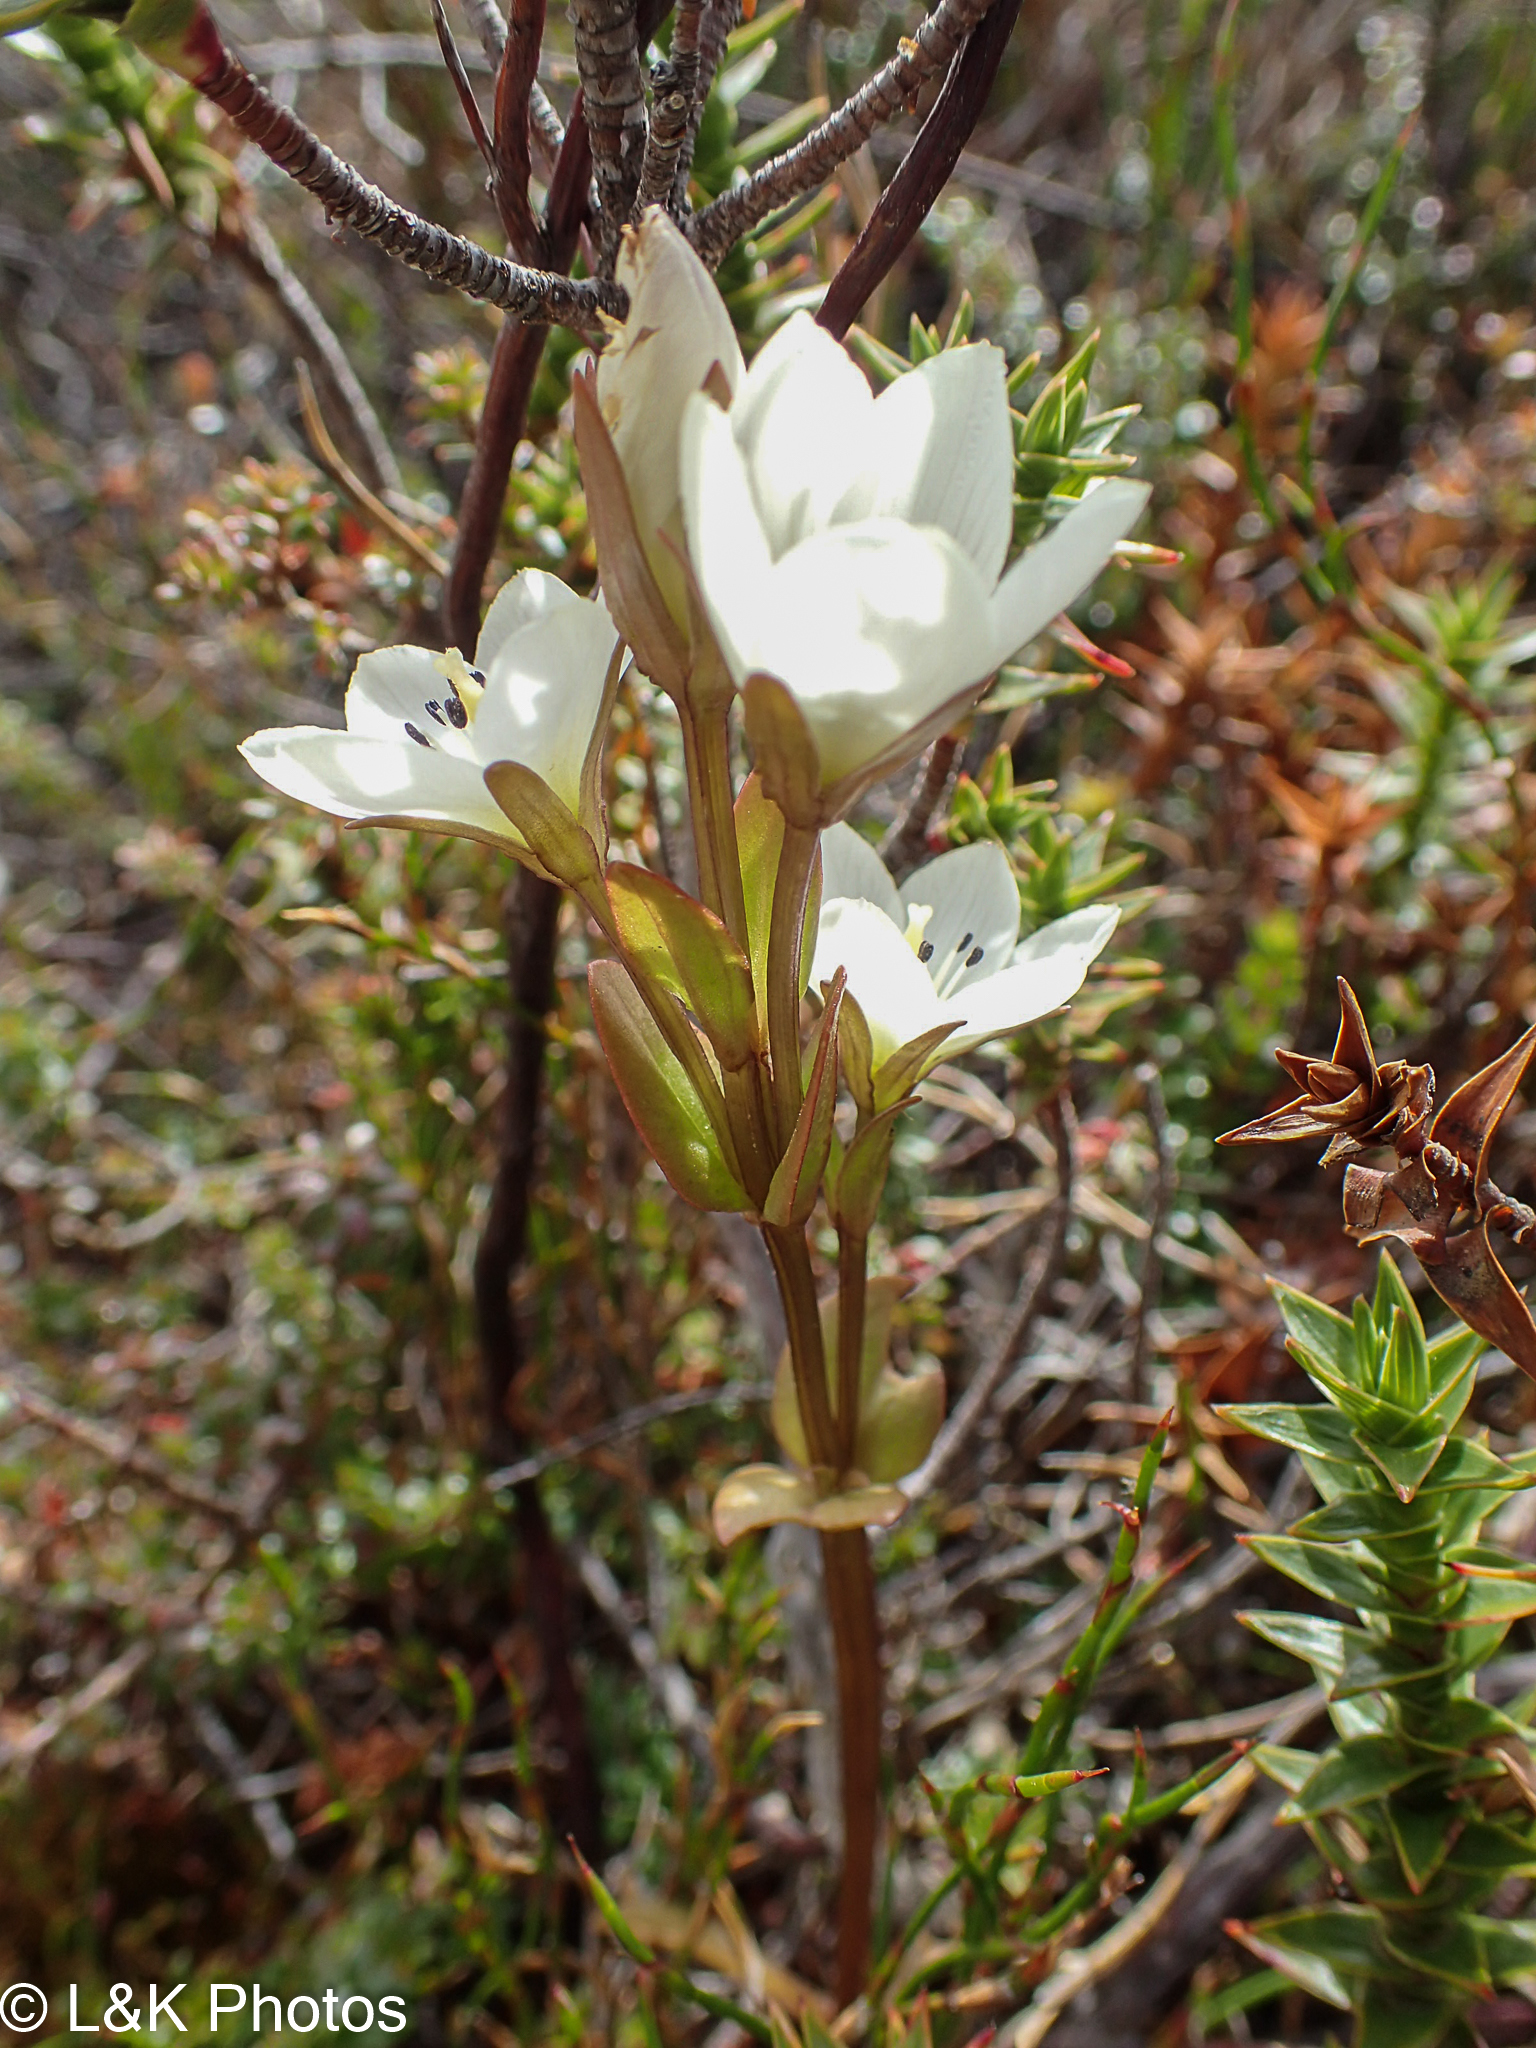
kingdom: Plantae
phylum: Tracheophyta
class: Magnoliopsida
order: Gentianales
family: Gentianaceae
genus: Gentianella
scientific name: Gentianella diemensis
